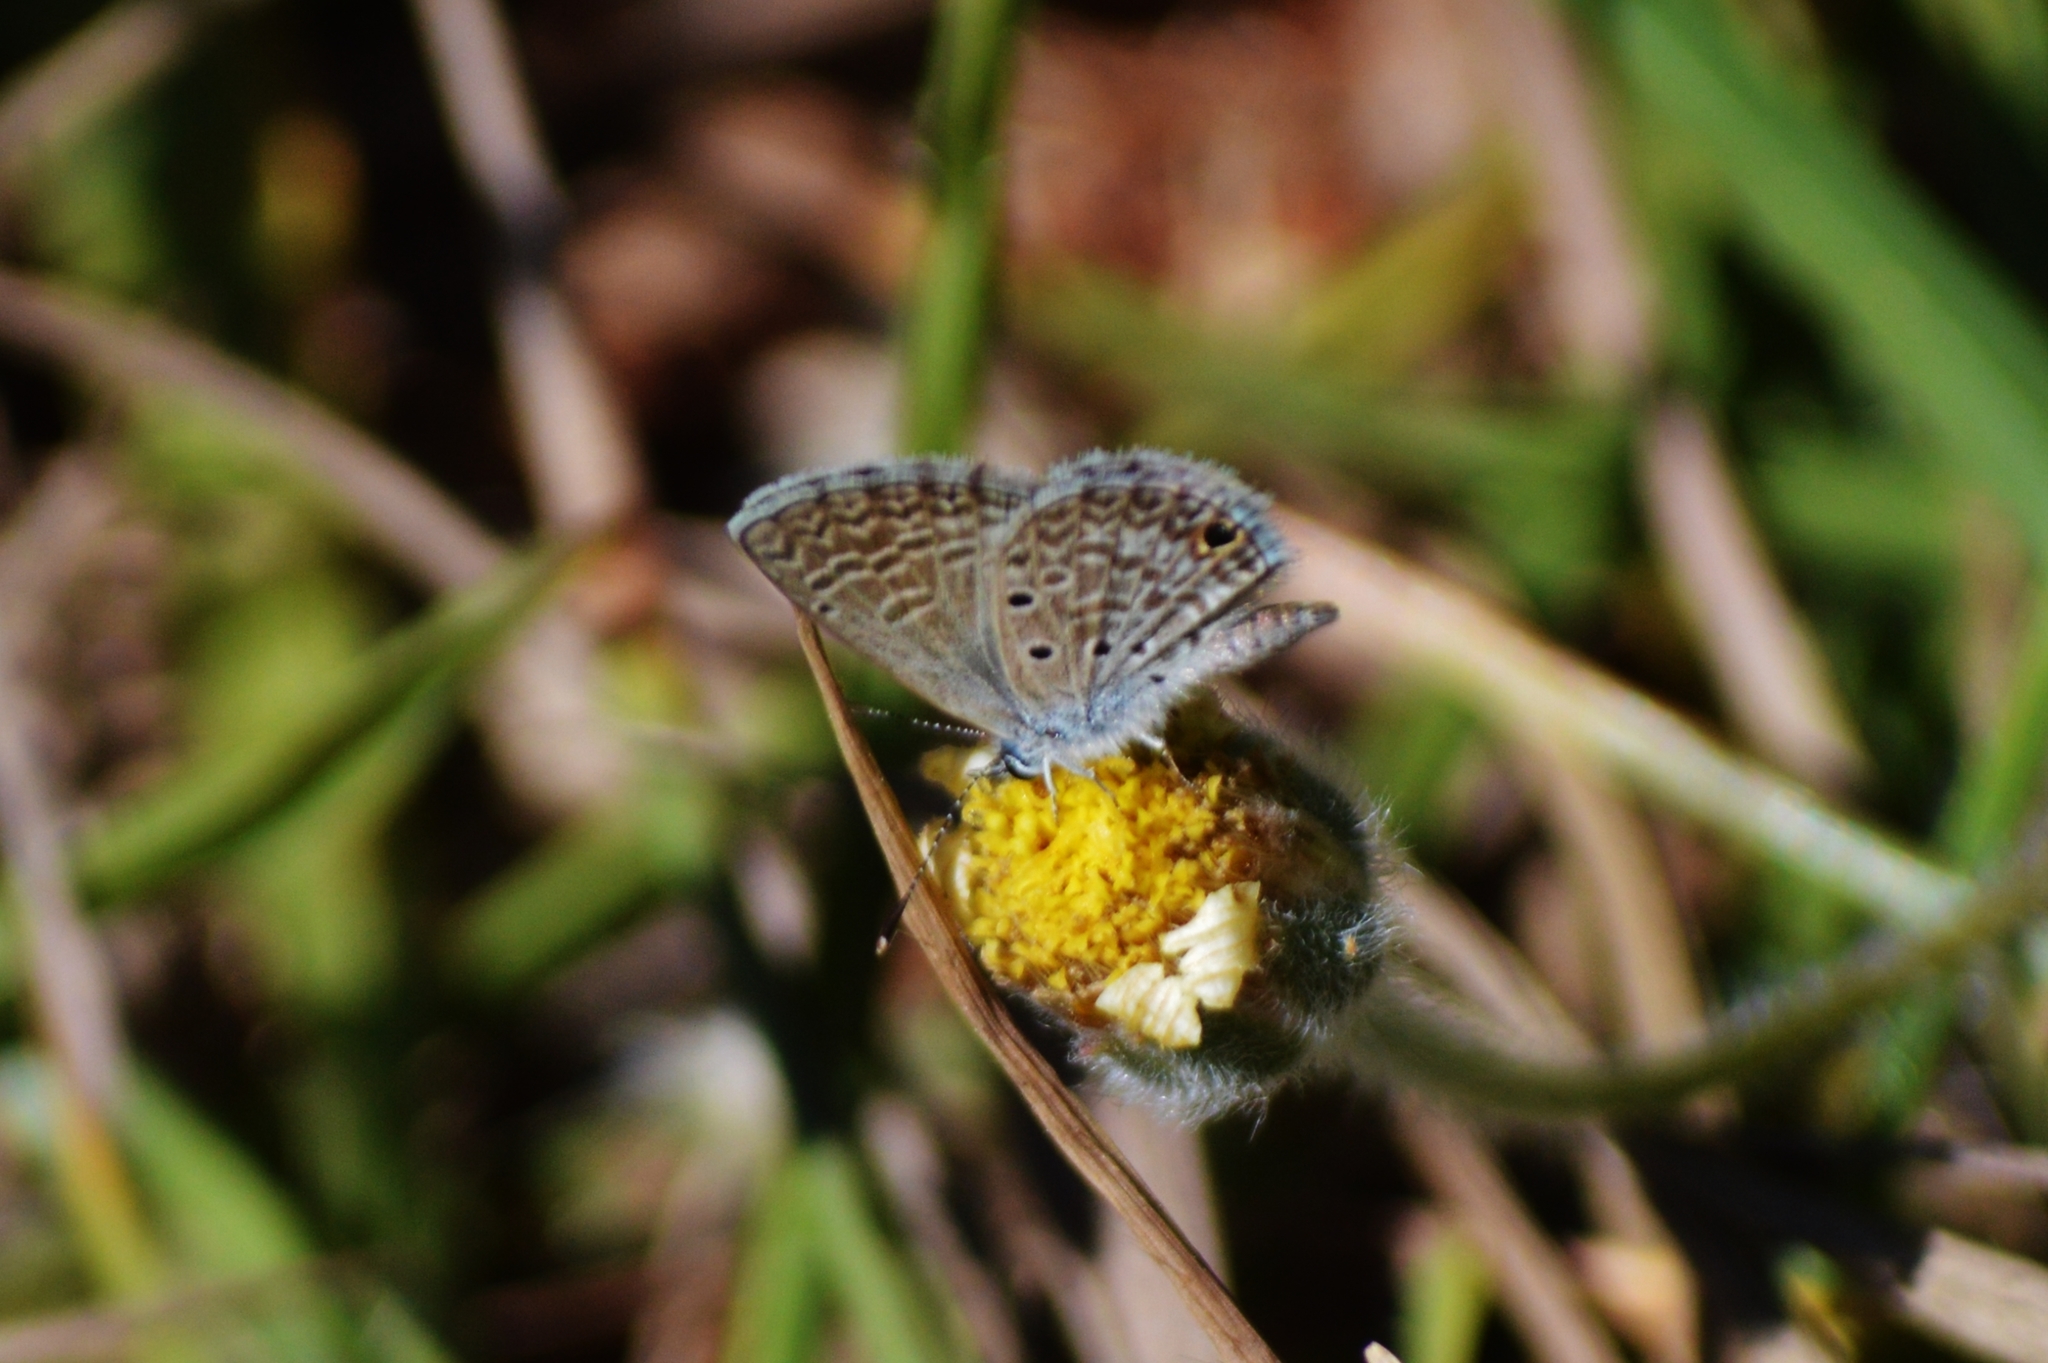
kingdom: Animalia
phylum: Arthropoda
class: Insecta
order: Lepidoptera
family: Lycaenidae
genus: Hemiargus
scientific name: Hemiargus hanno
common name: Common blue
